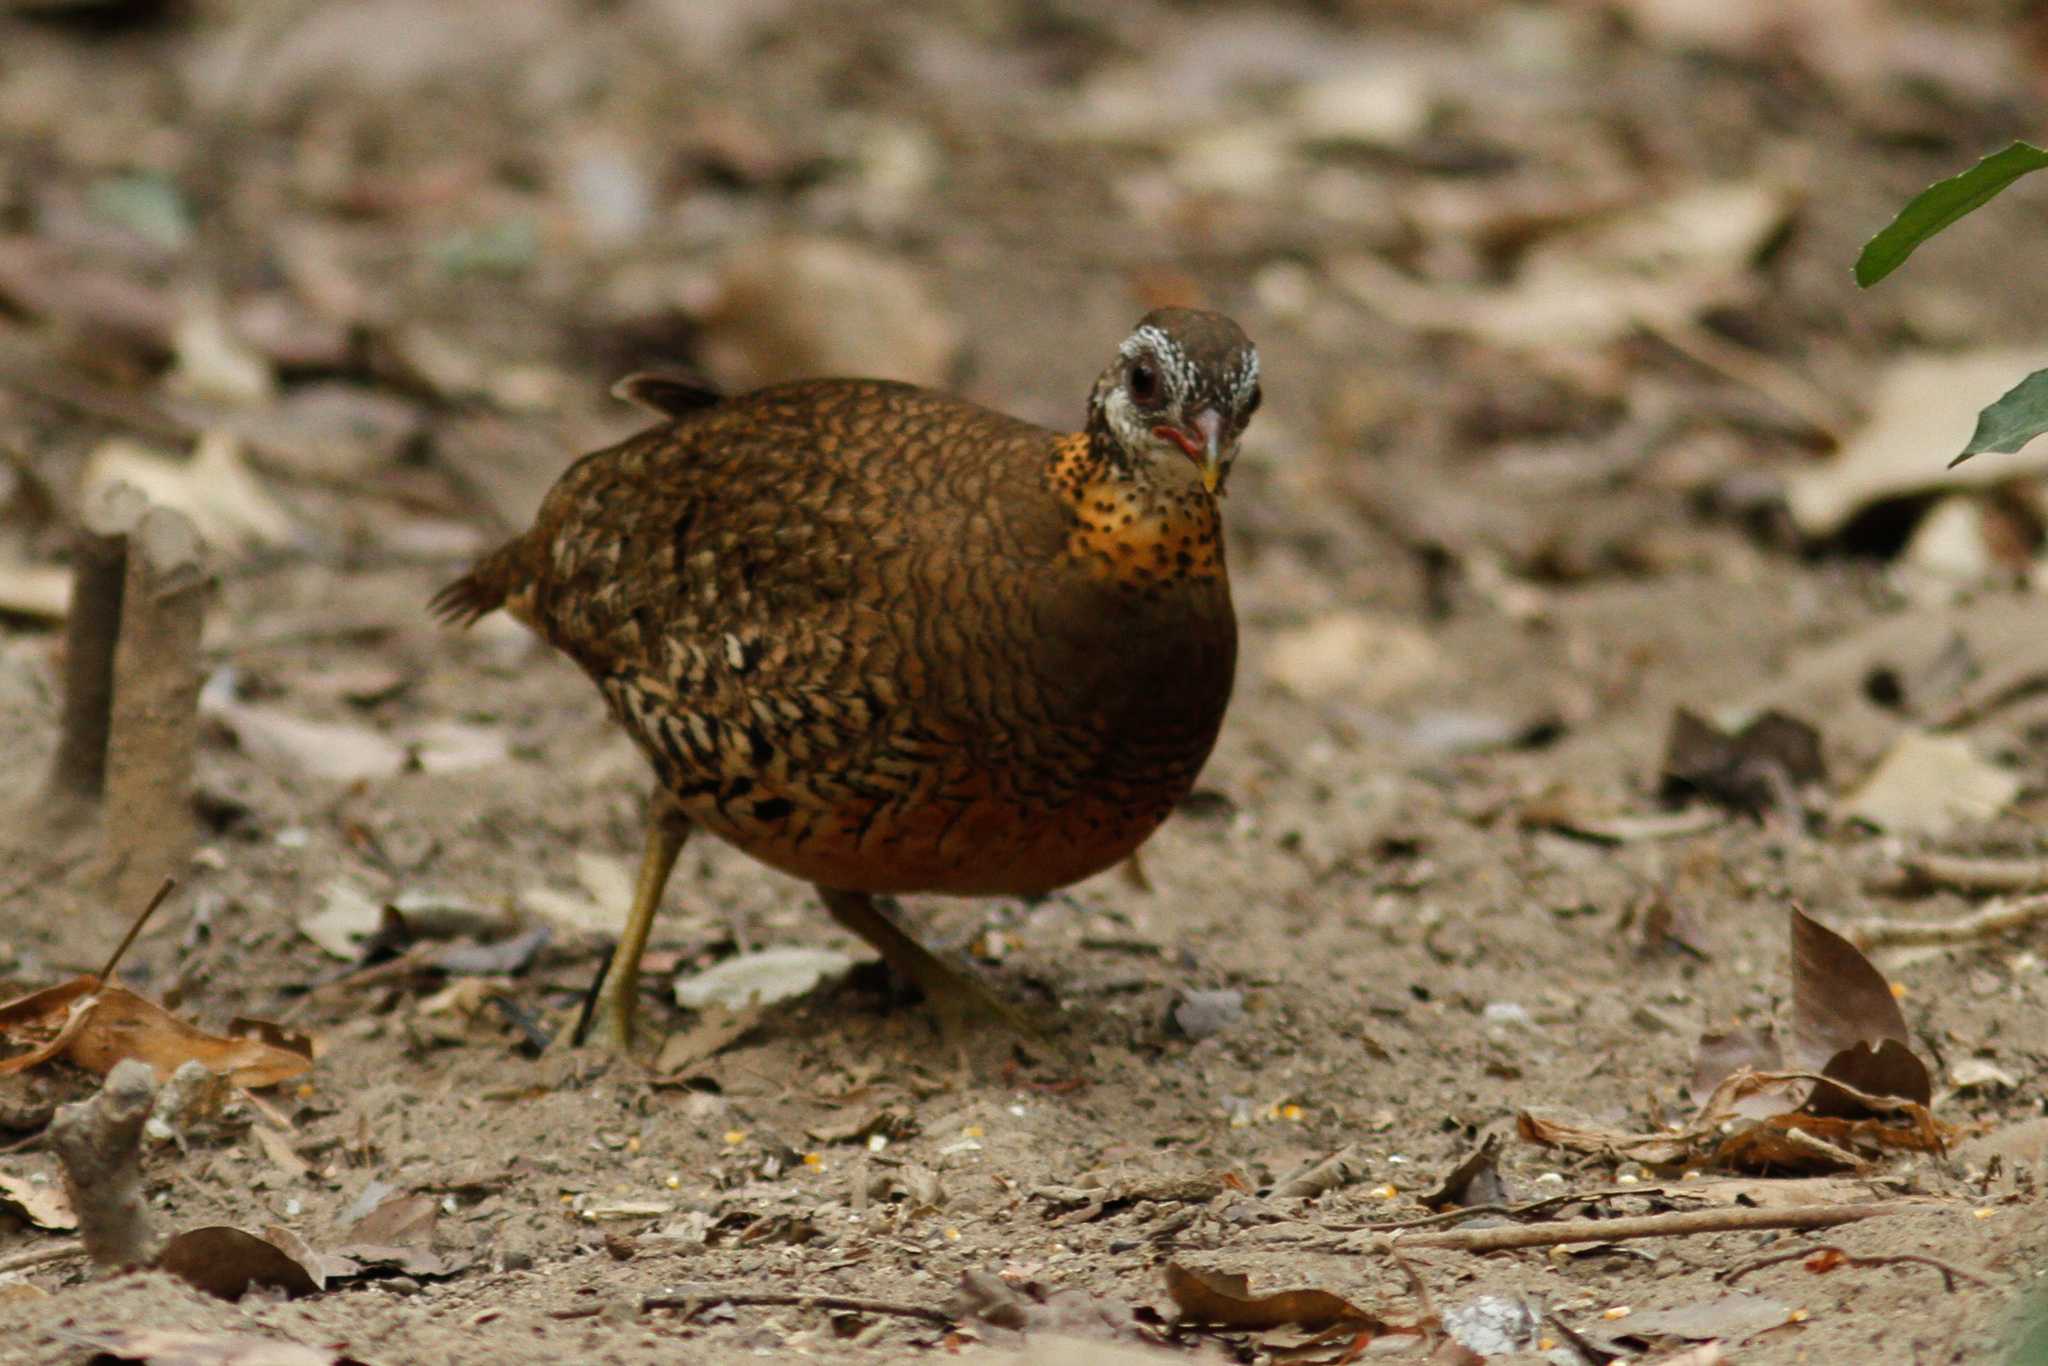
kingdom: Animalia
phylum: Chordata
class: Aves
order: Galliformes
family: Phasianidae
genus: Tropicoperdix
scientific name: Tropicoperdix chloropus
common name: Green-legged partridge
